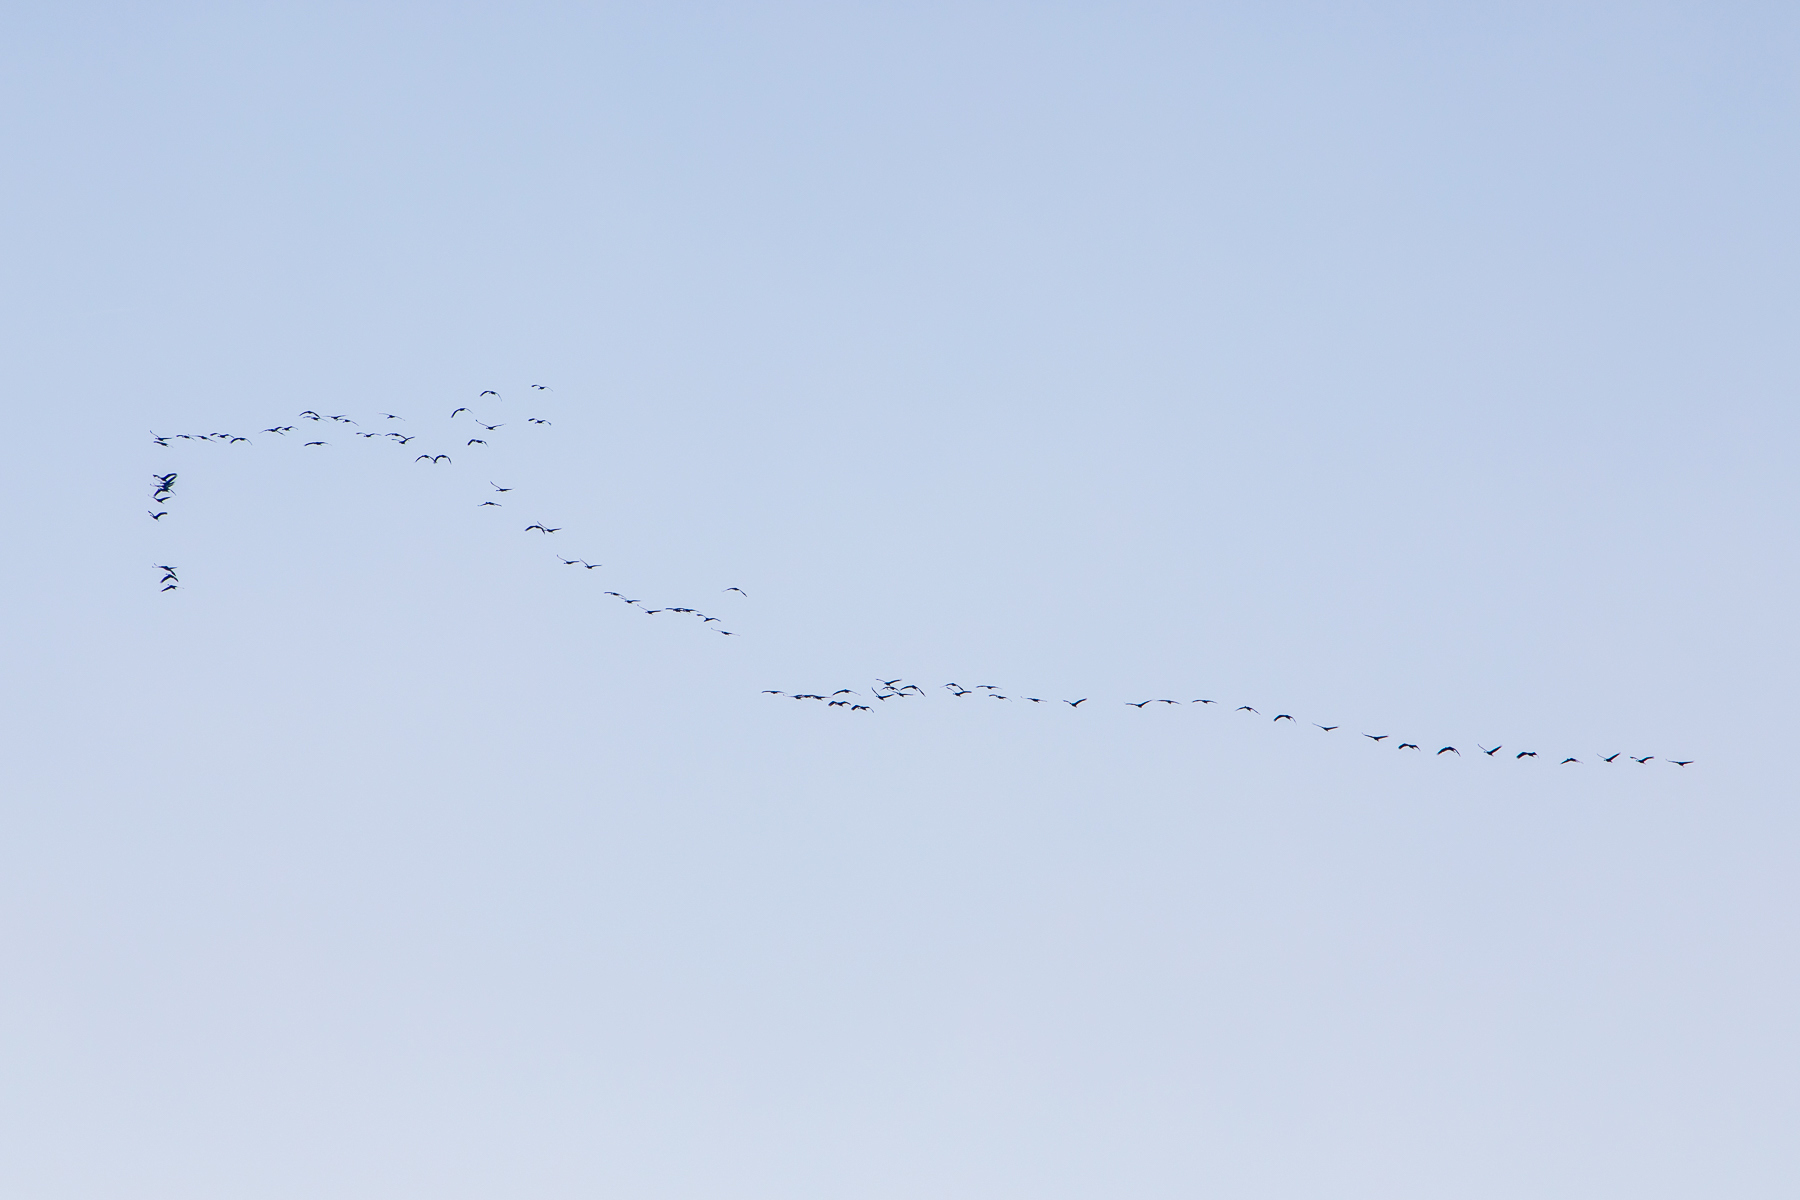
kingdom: Animalia
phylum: Chordata
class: Aves
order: Gruiformes
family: Gruidae
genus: Grus
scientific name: Grus canadensis
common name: Sandhill crane
